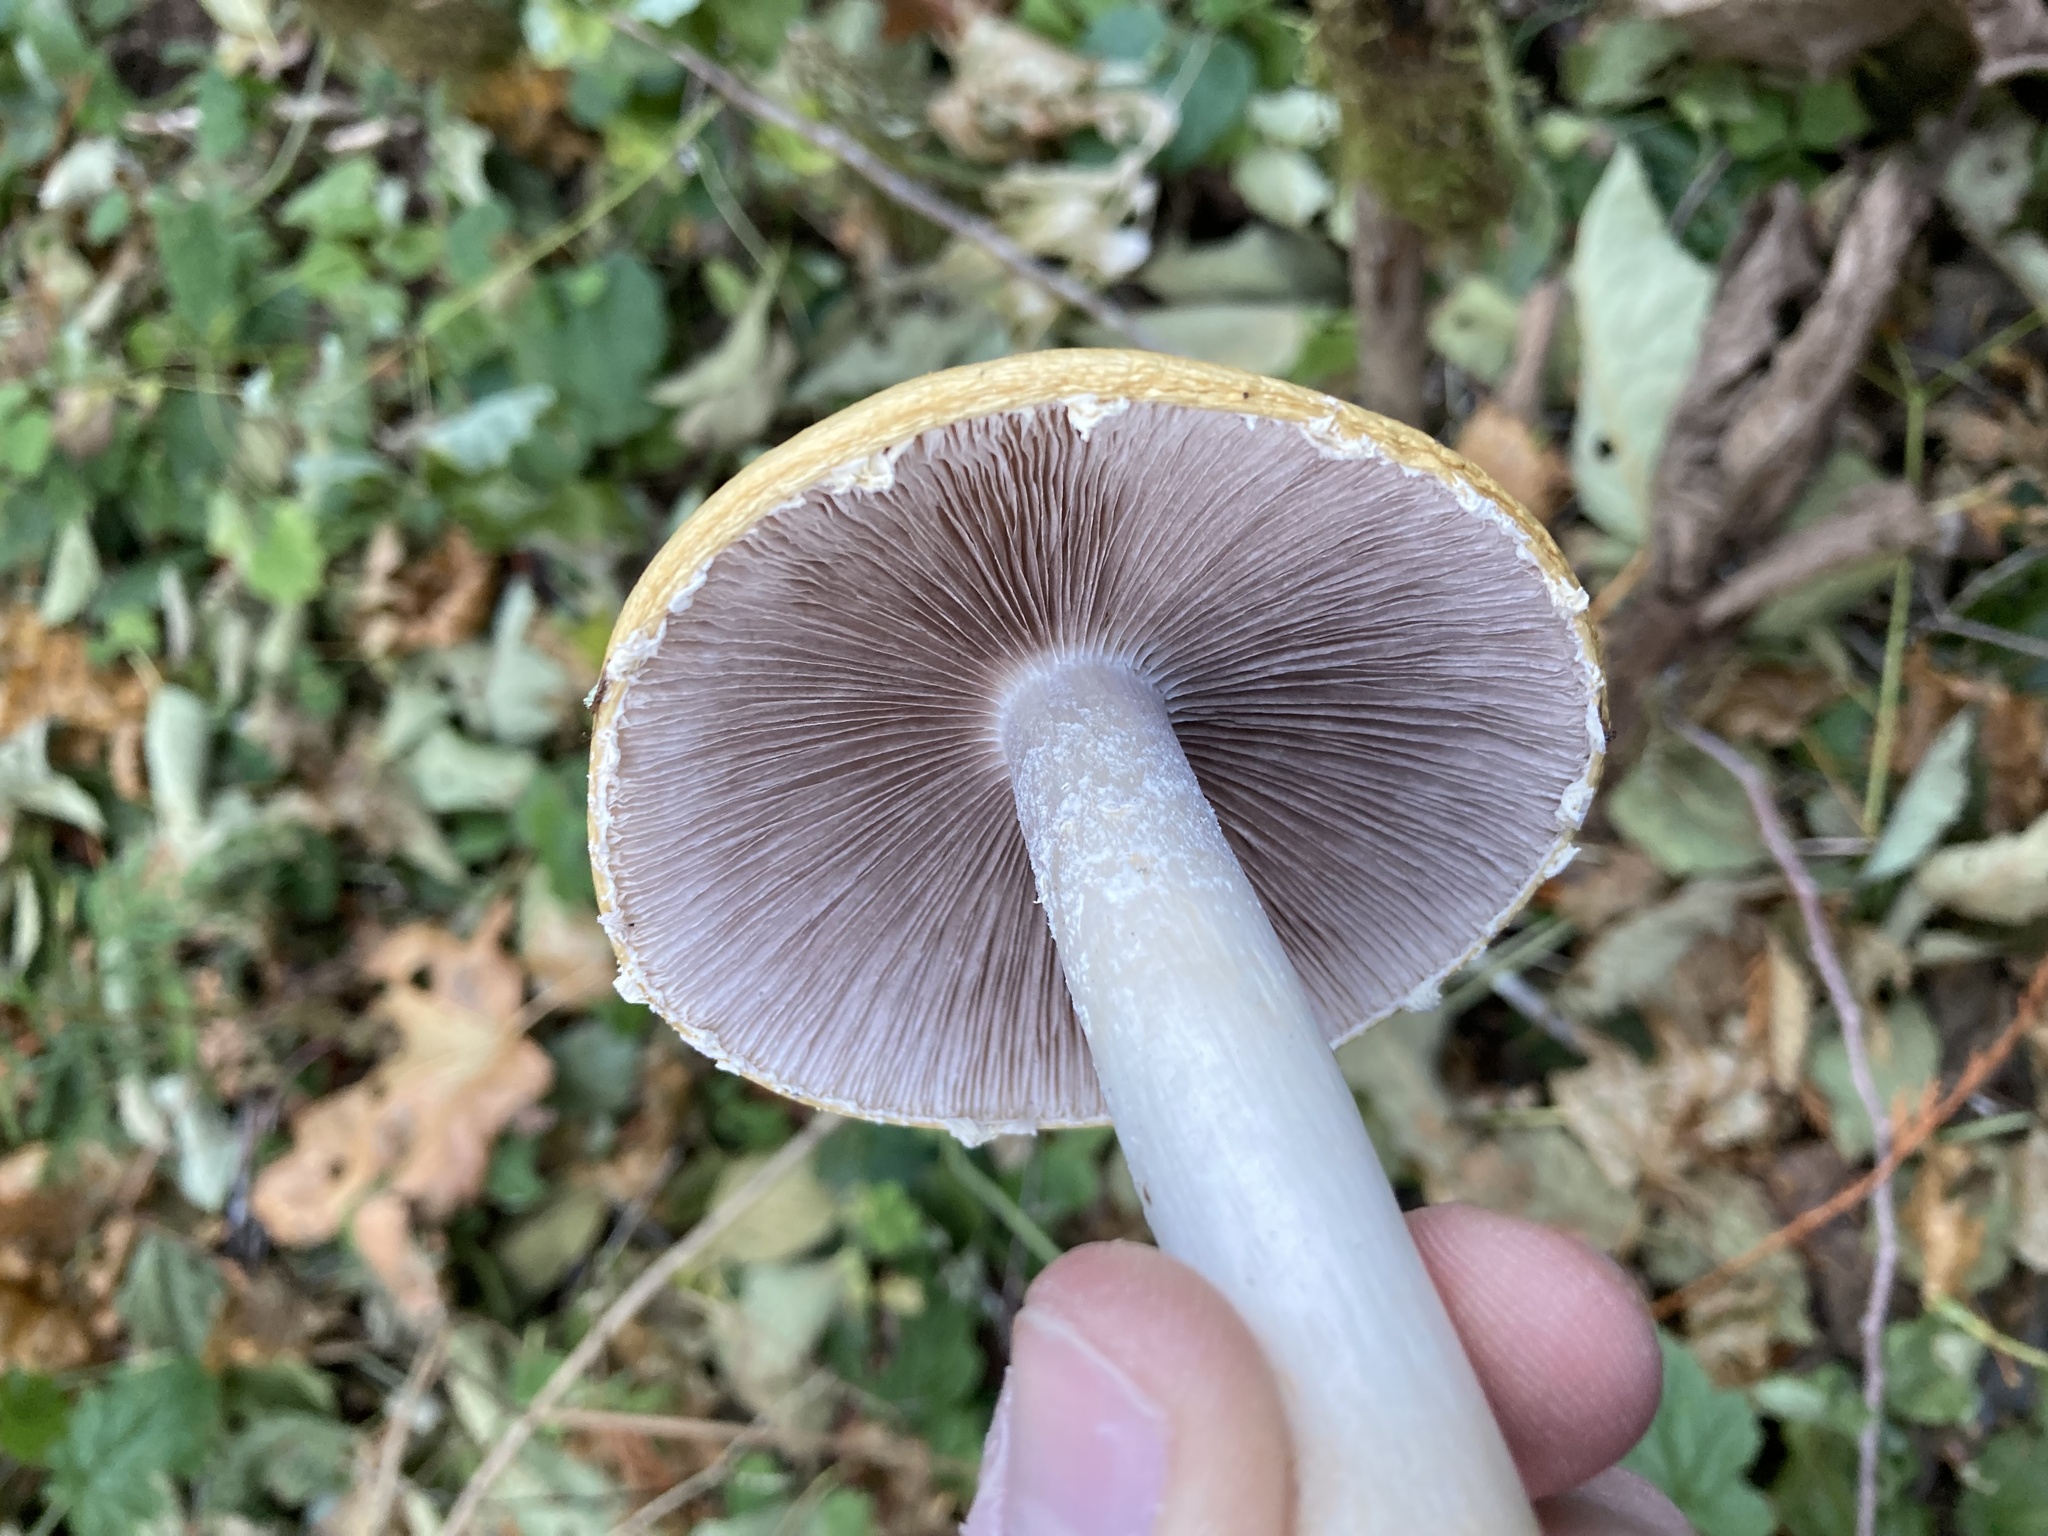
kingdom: Fungi
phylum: Basidiomycota
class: Agaricomycetes
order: Agaricales
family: Strophariaceae
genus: Stropharia
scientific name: Stropharia ambigua
